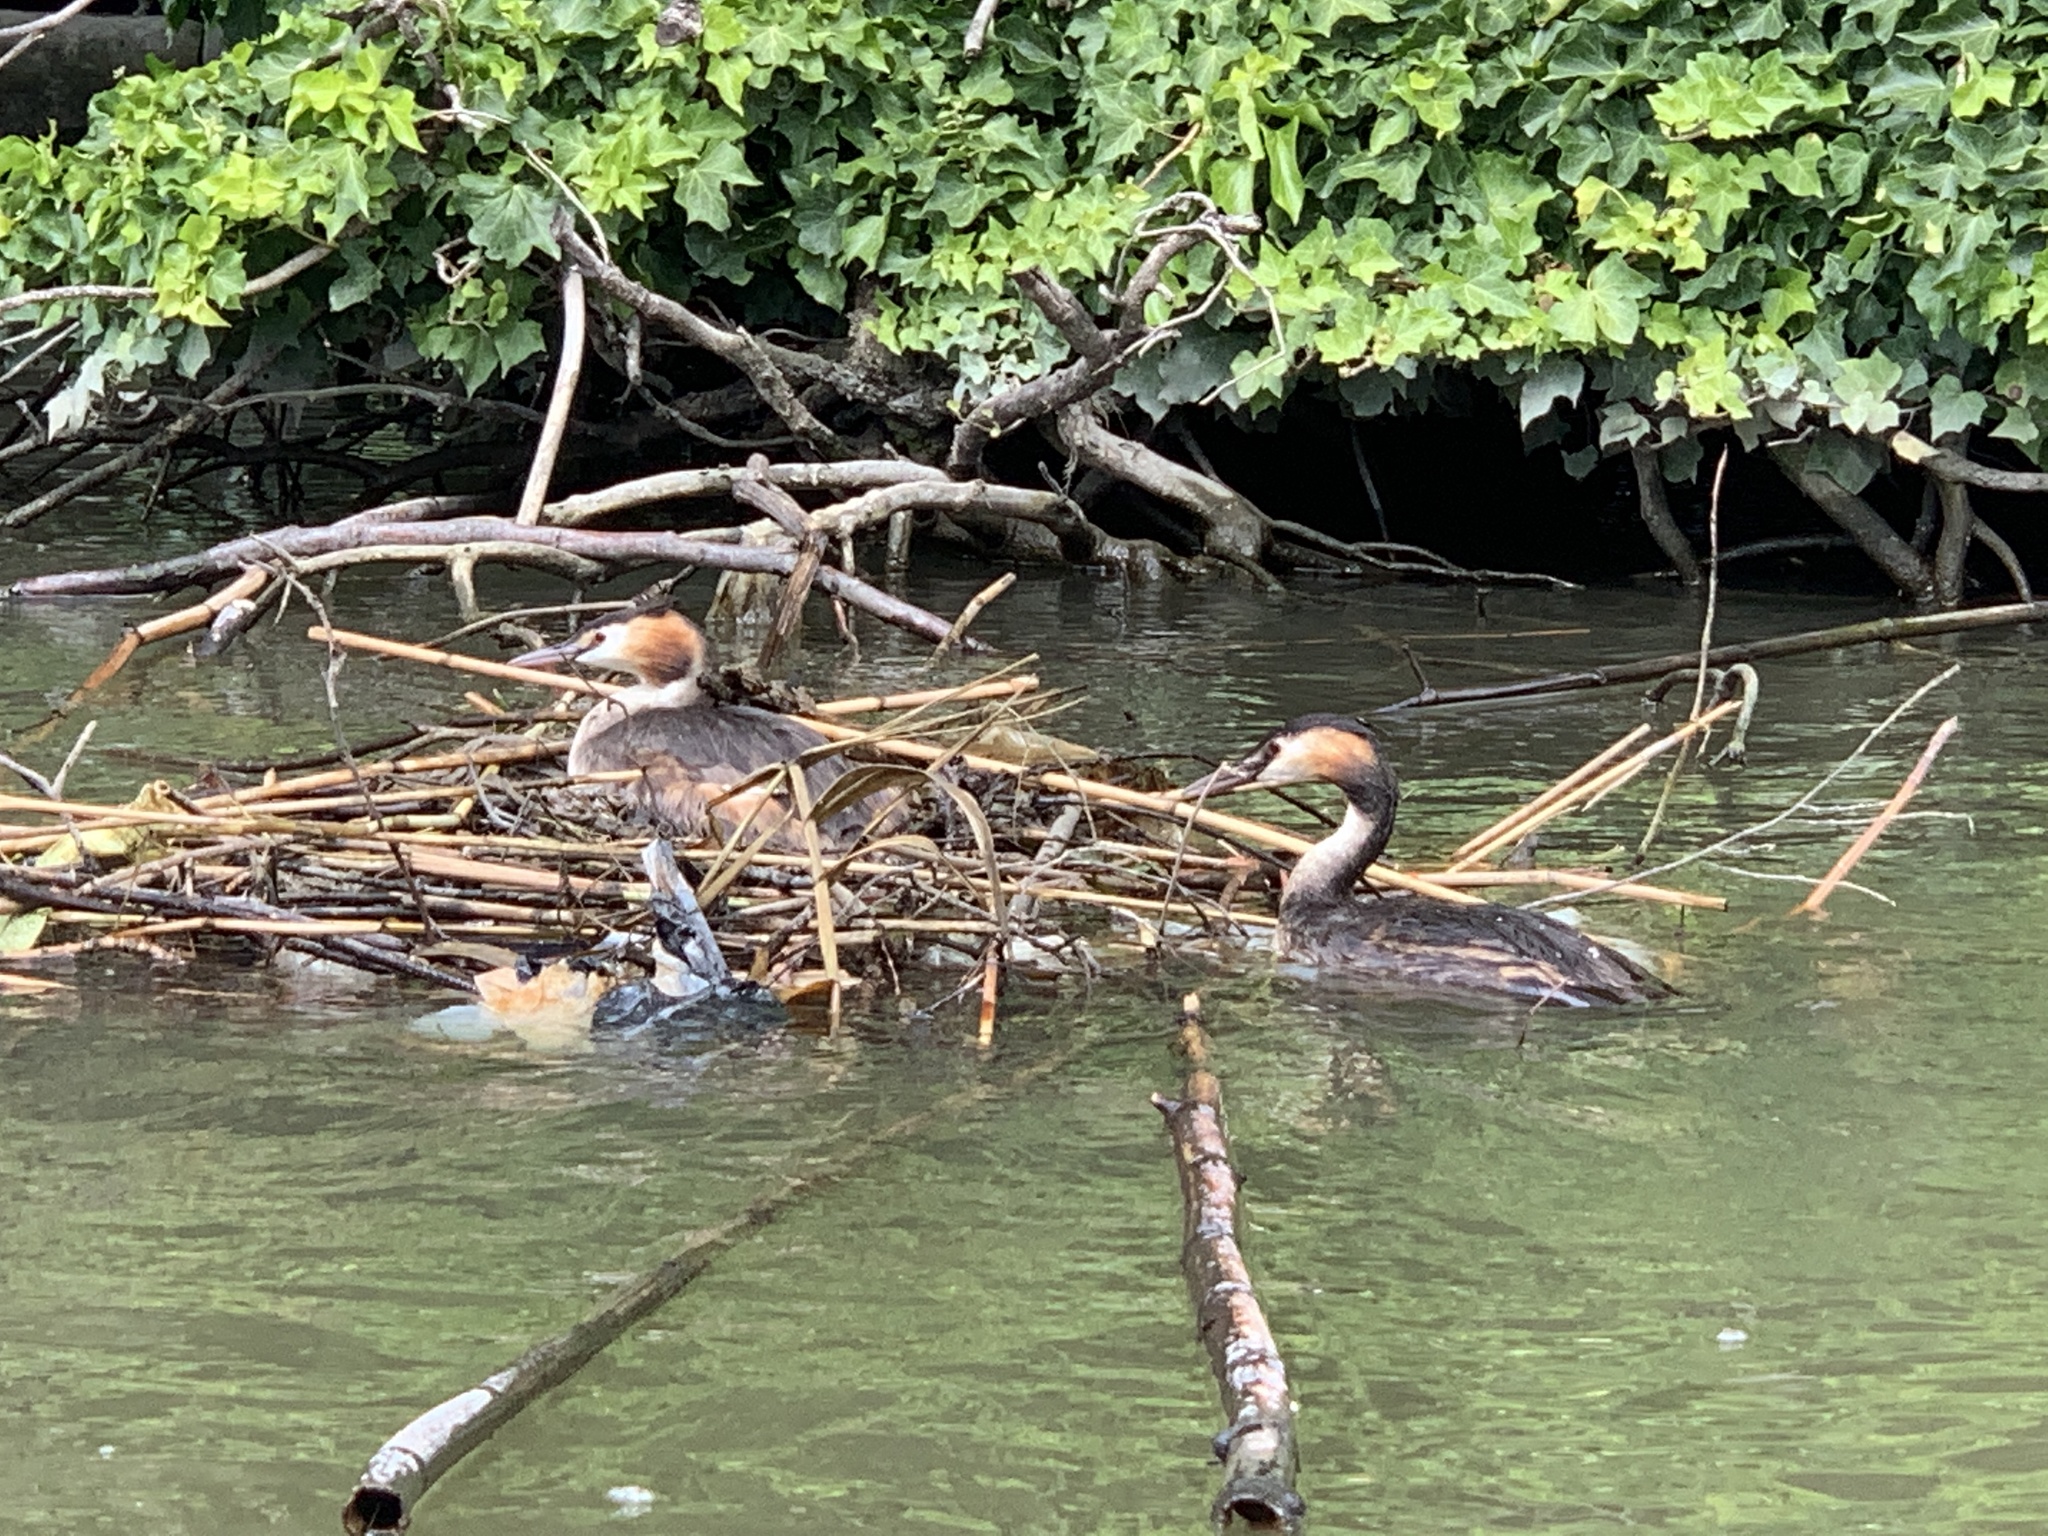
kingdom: Animalia
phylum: Chordata
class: Aves
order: Podicipediformes
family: Podicipedidae
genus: Podiceps
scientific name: Podiceps cristatus
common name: Great crested grebe
